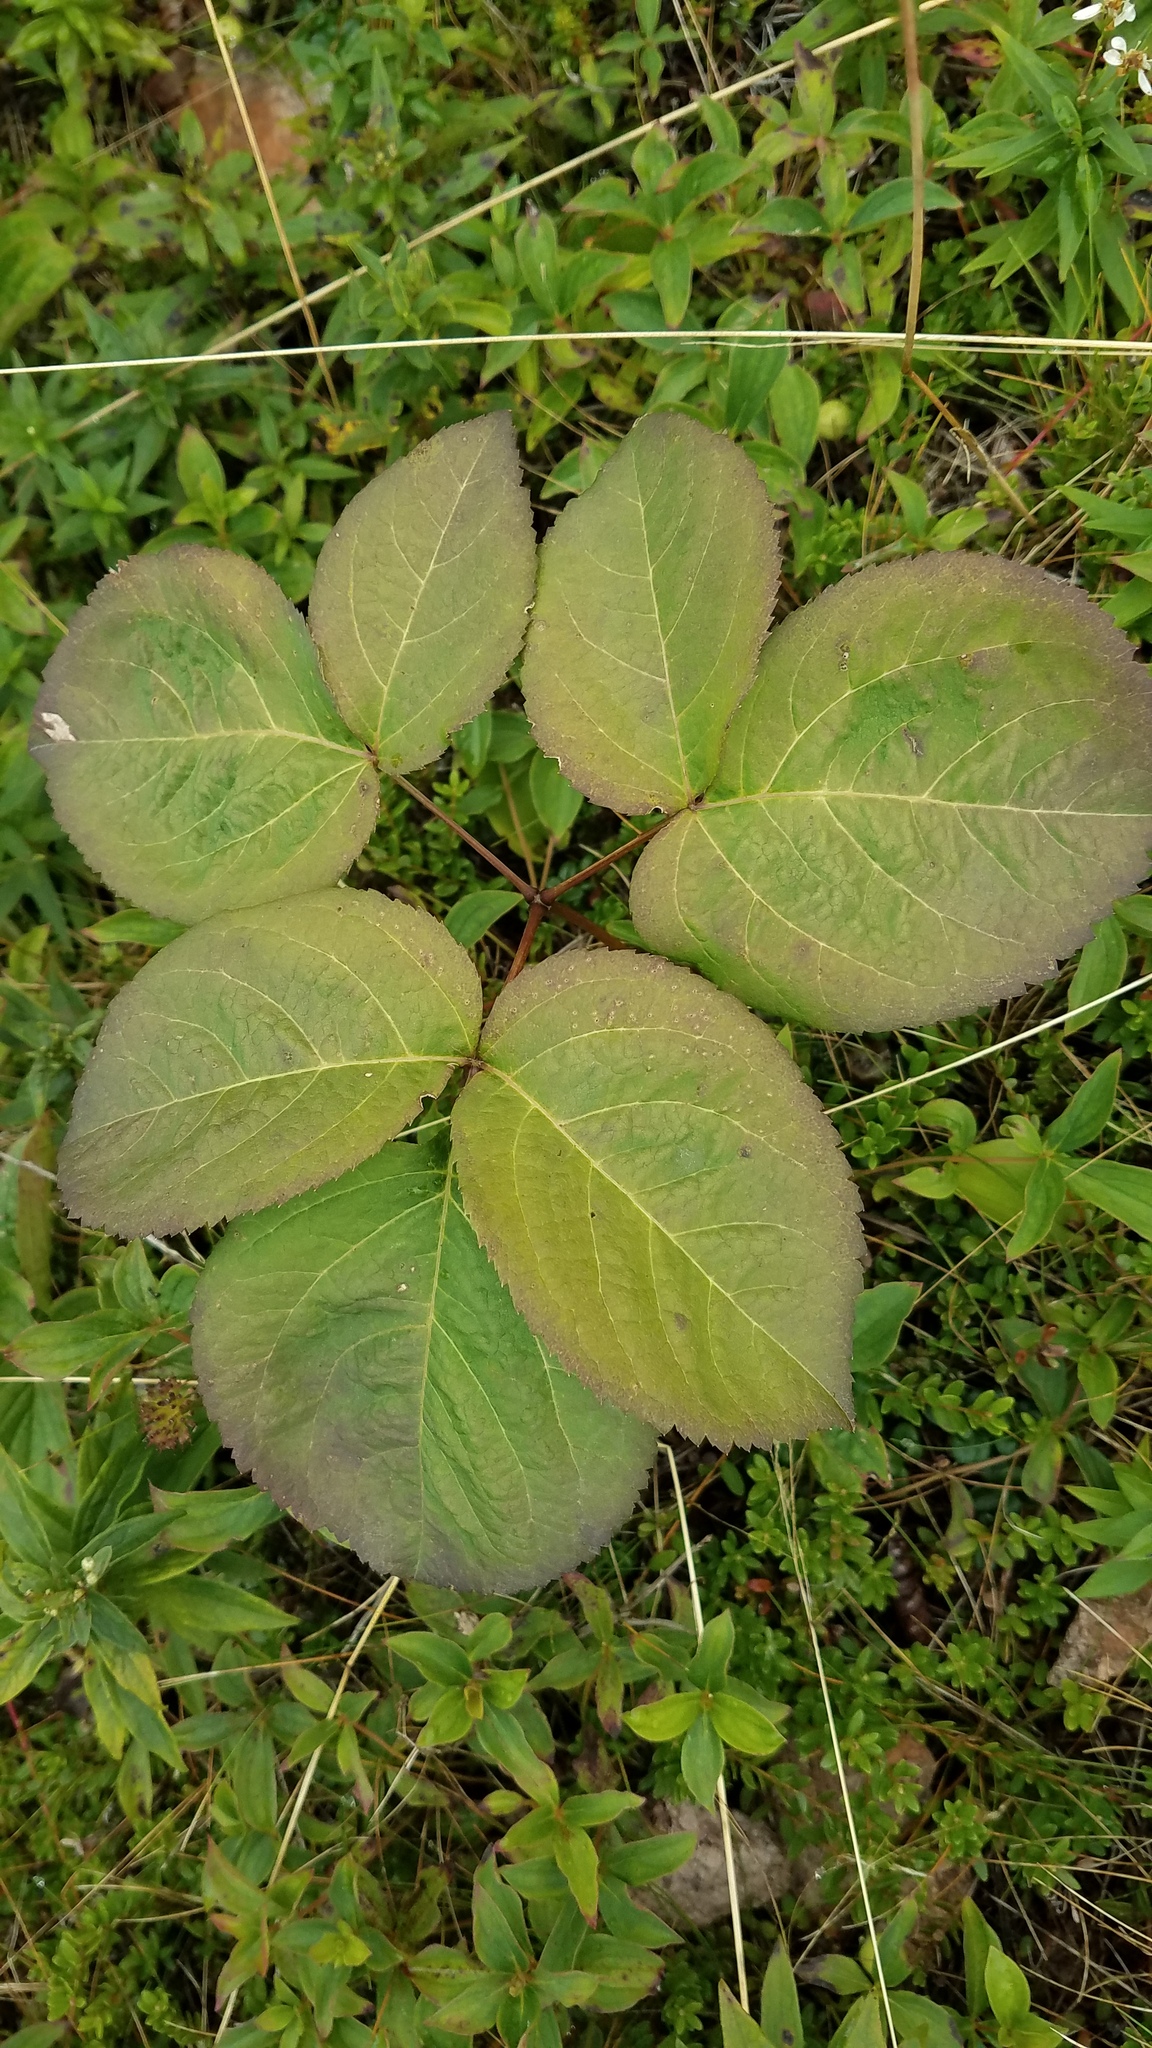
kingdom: Plantae
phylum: Tracheophyta
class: Magnoliopsida
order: Apiales
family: Araliaceae
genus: Aralia
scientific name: Aralia nudicaulis
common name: Wild sarsaparilla
